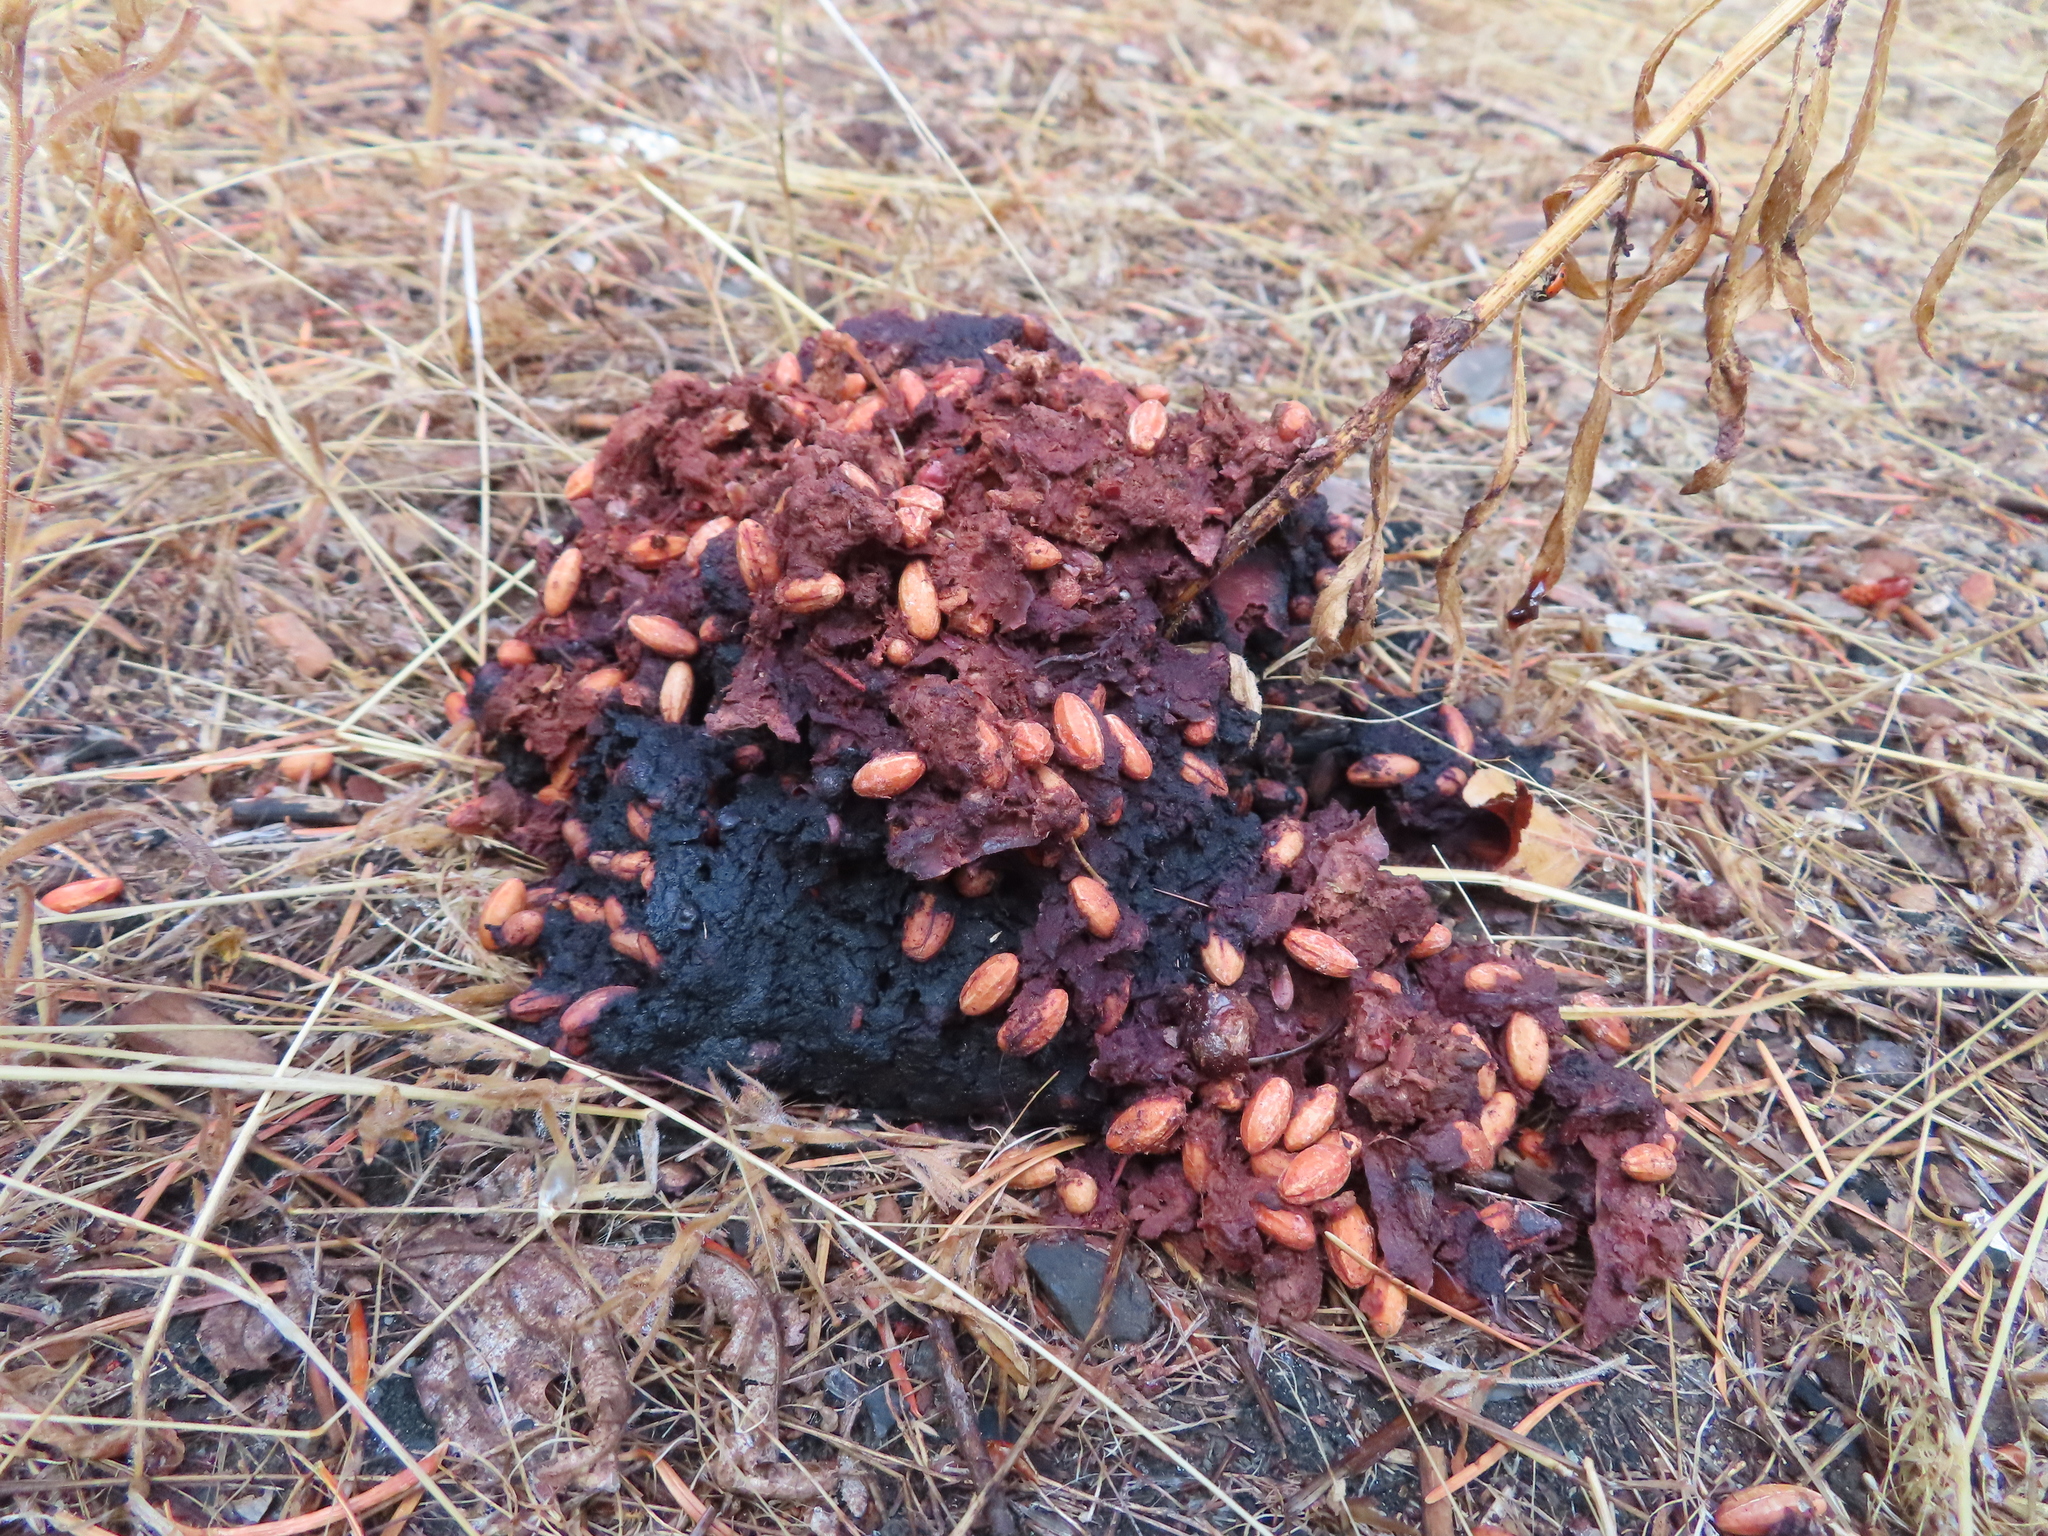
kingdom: Animalia
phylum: Chordata
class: Mammalia
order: Carnivora
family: Ursidae
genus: Ursus
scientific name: Ursus americanus
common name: American black bear
